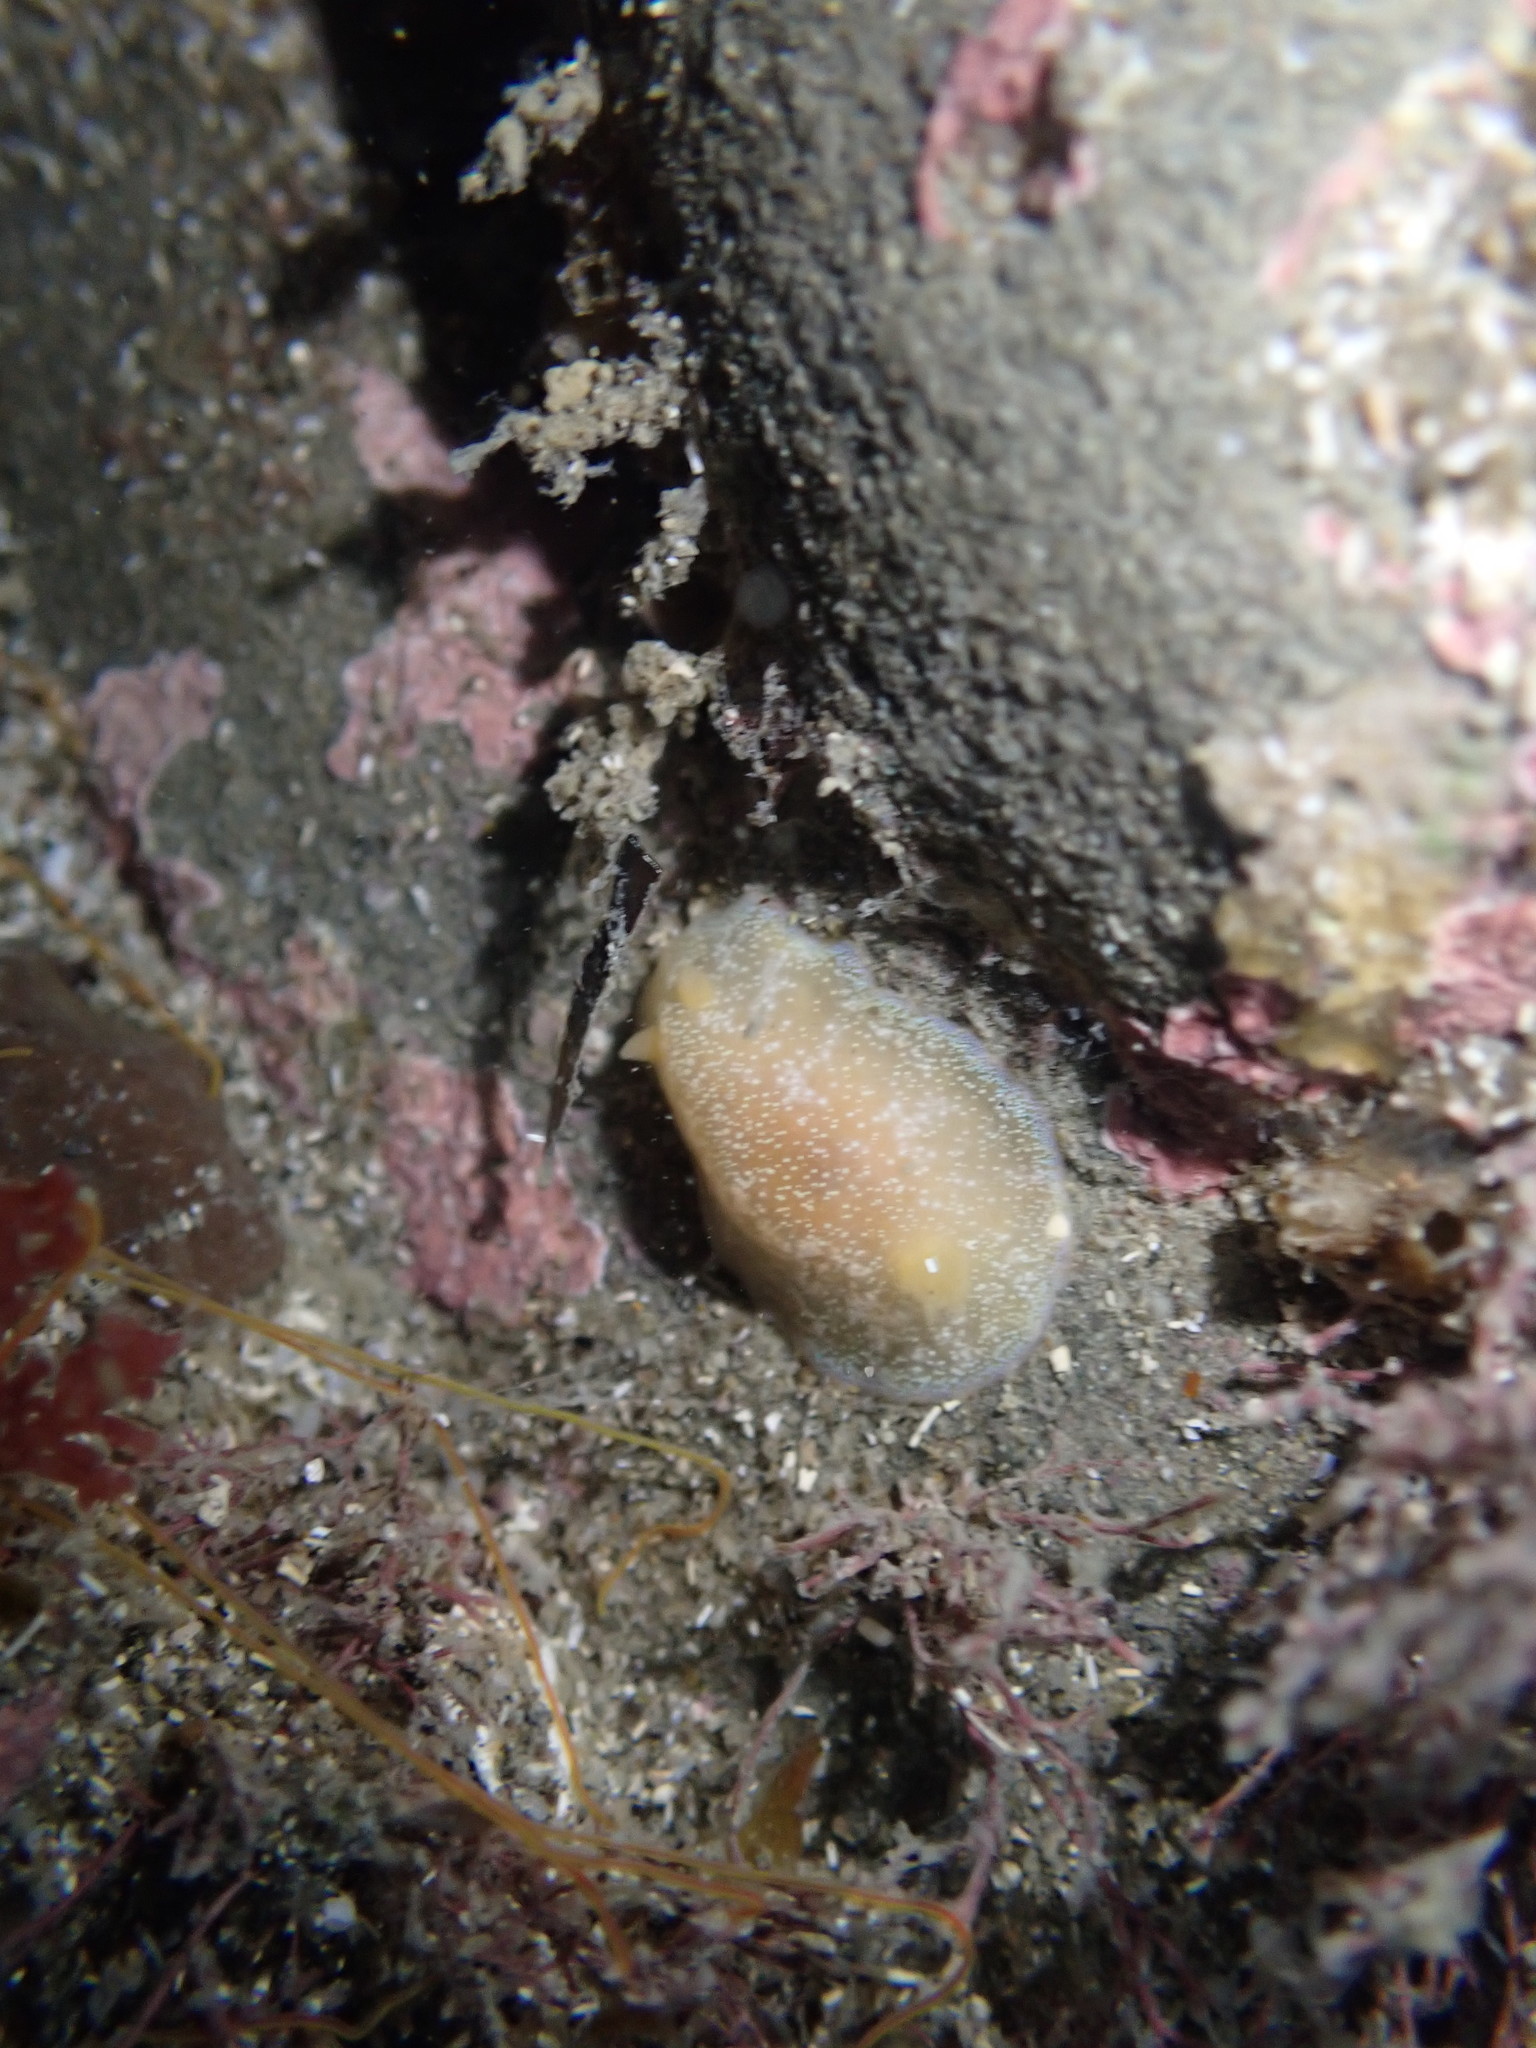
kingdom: Animalia
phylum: Mollusca
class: Gastropoda
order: Nudibranchia
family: Dendrodorididae
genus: Dendrodoris
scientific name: Dendrodoris citrina
